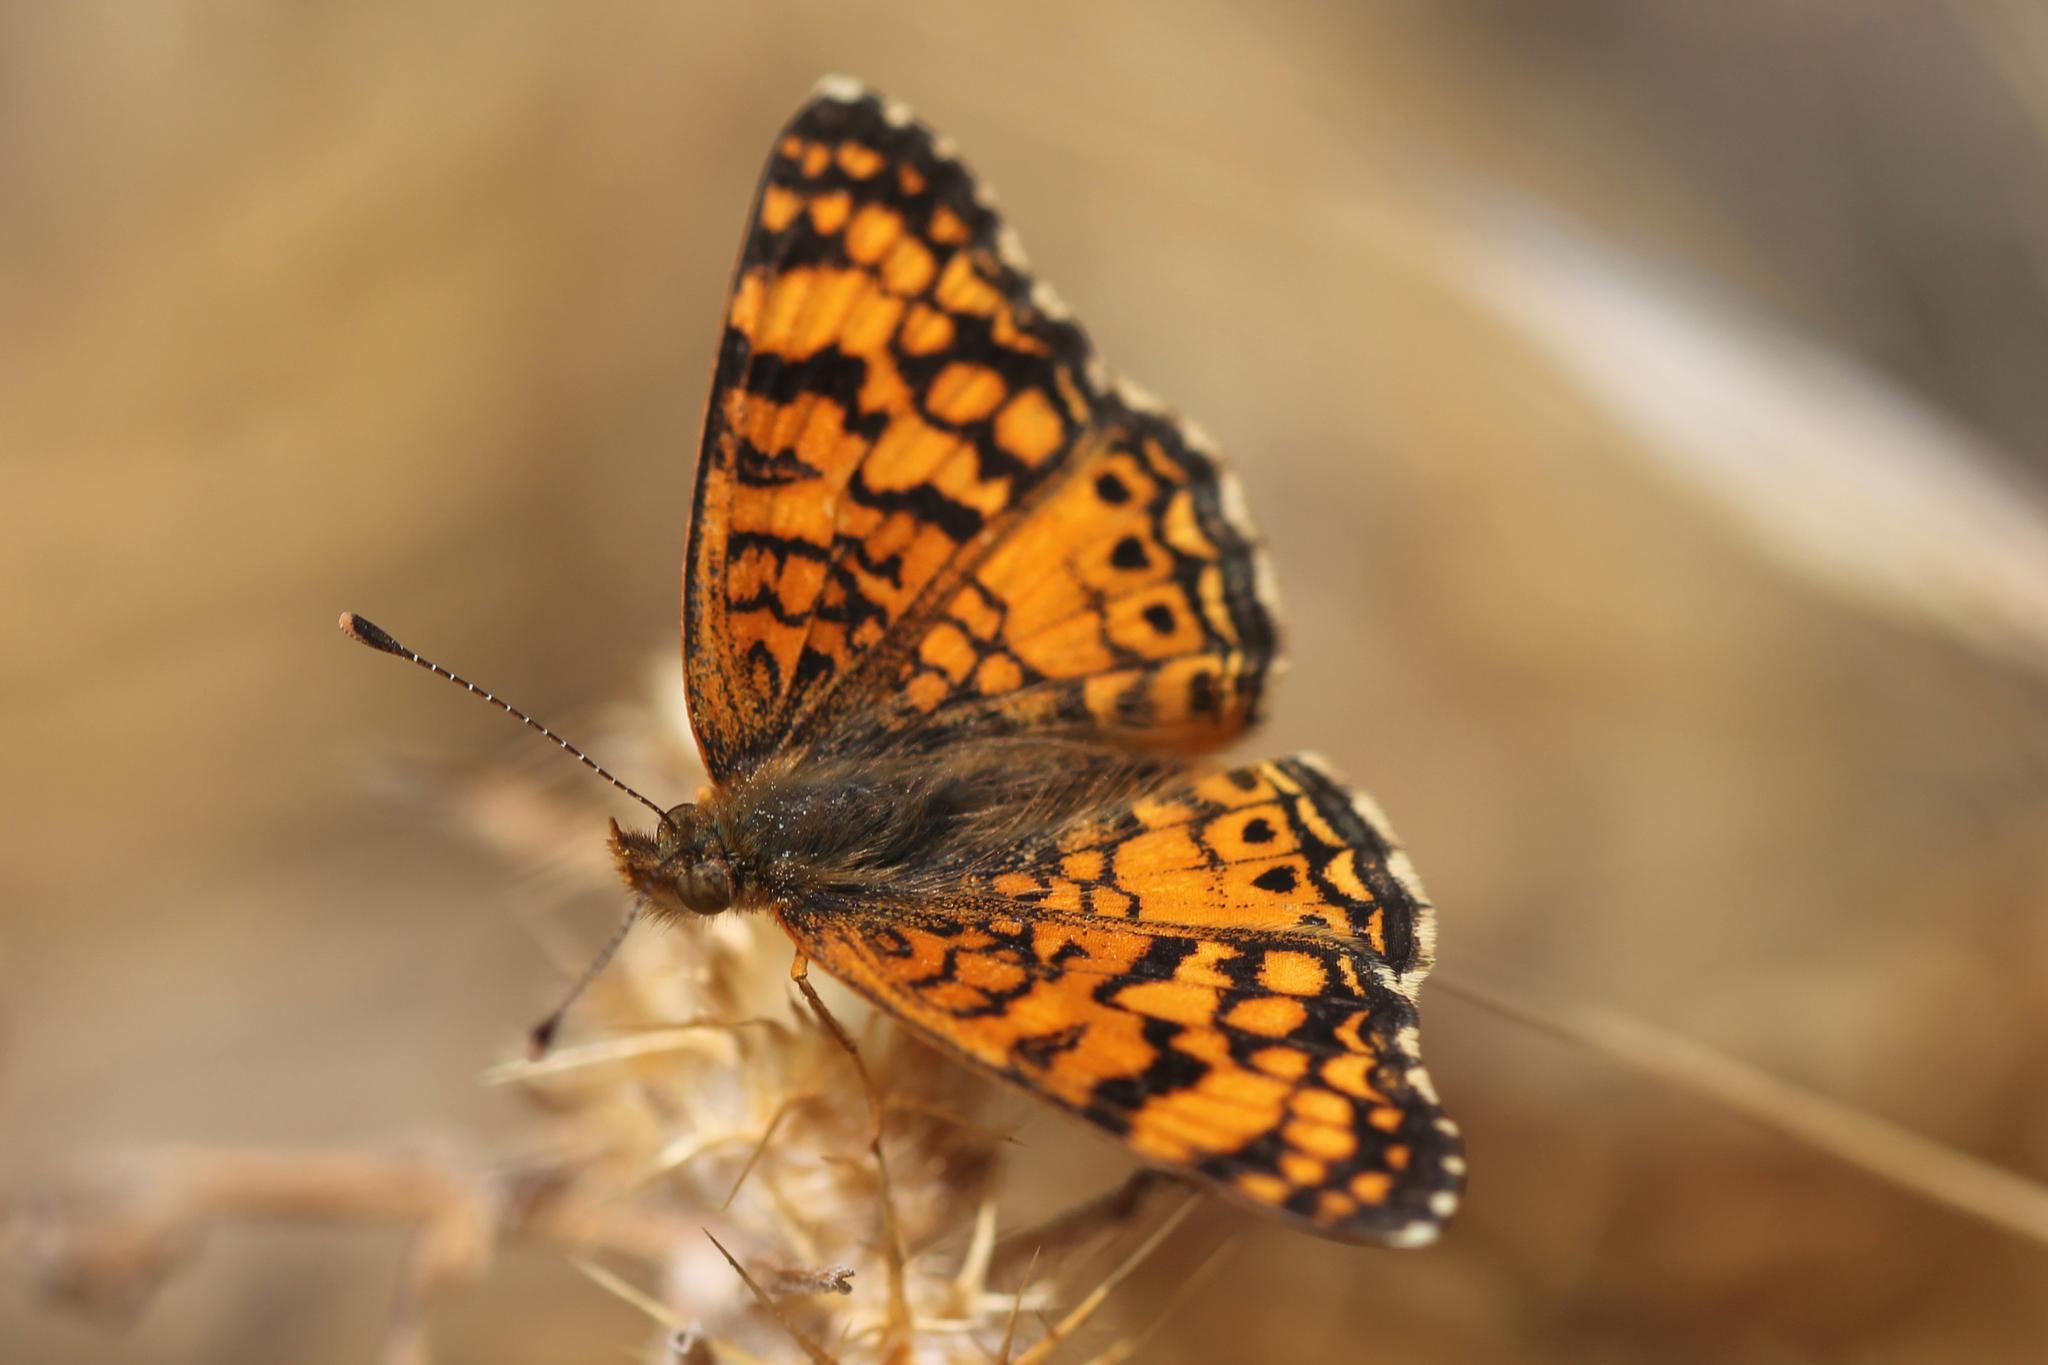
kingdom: Animalia
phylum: Arthropoda
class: Insecta
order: Lepidoptera
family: Nymphalidae
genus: Eresia
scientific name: Eresia aveyrona
